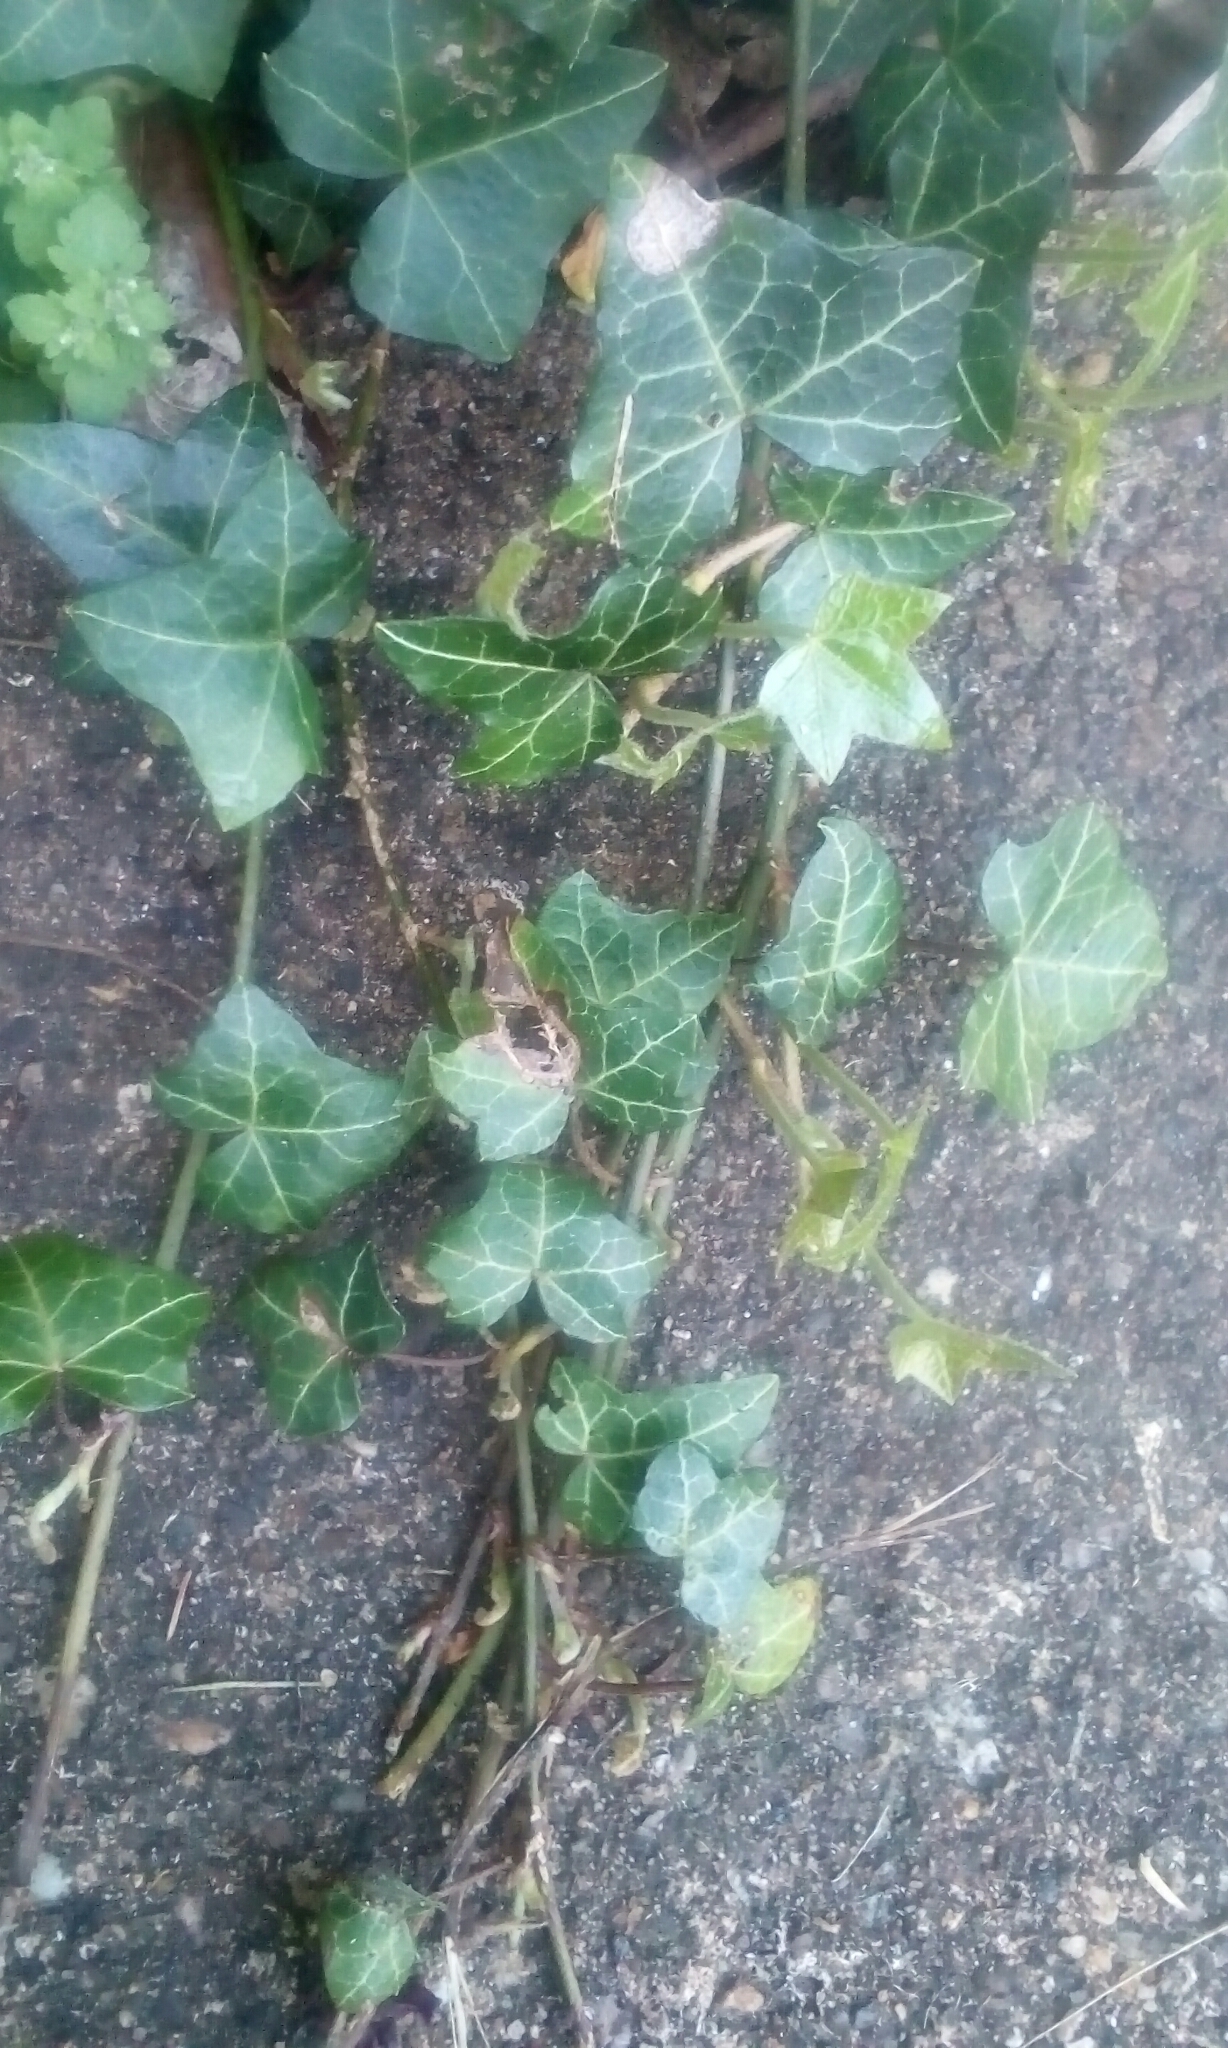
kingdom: Plantae
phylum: Tracheophyta
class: Magnoliopsida
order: Apiales
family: Araliaceae
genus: Hedera
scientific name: Hedera helix
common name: Ivy
